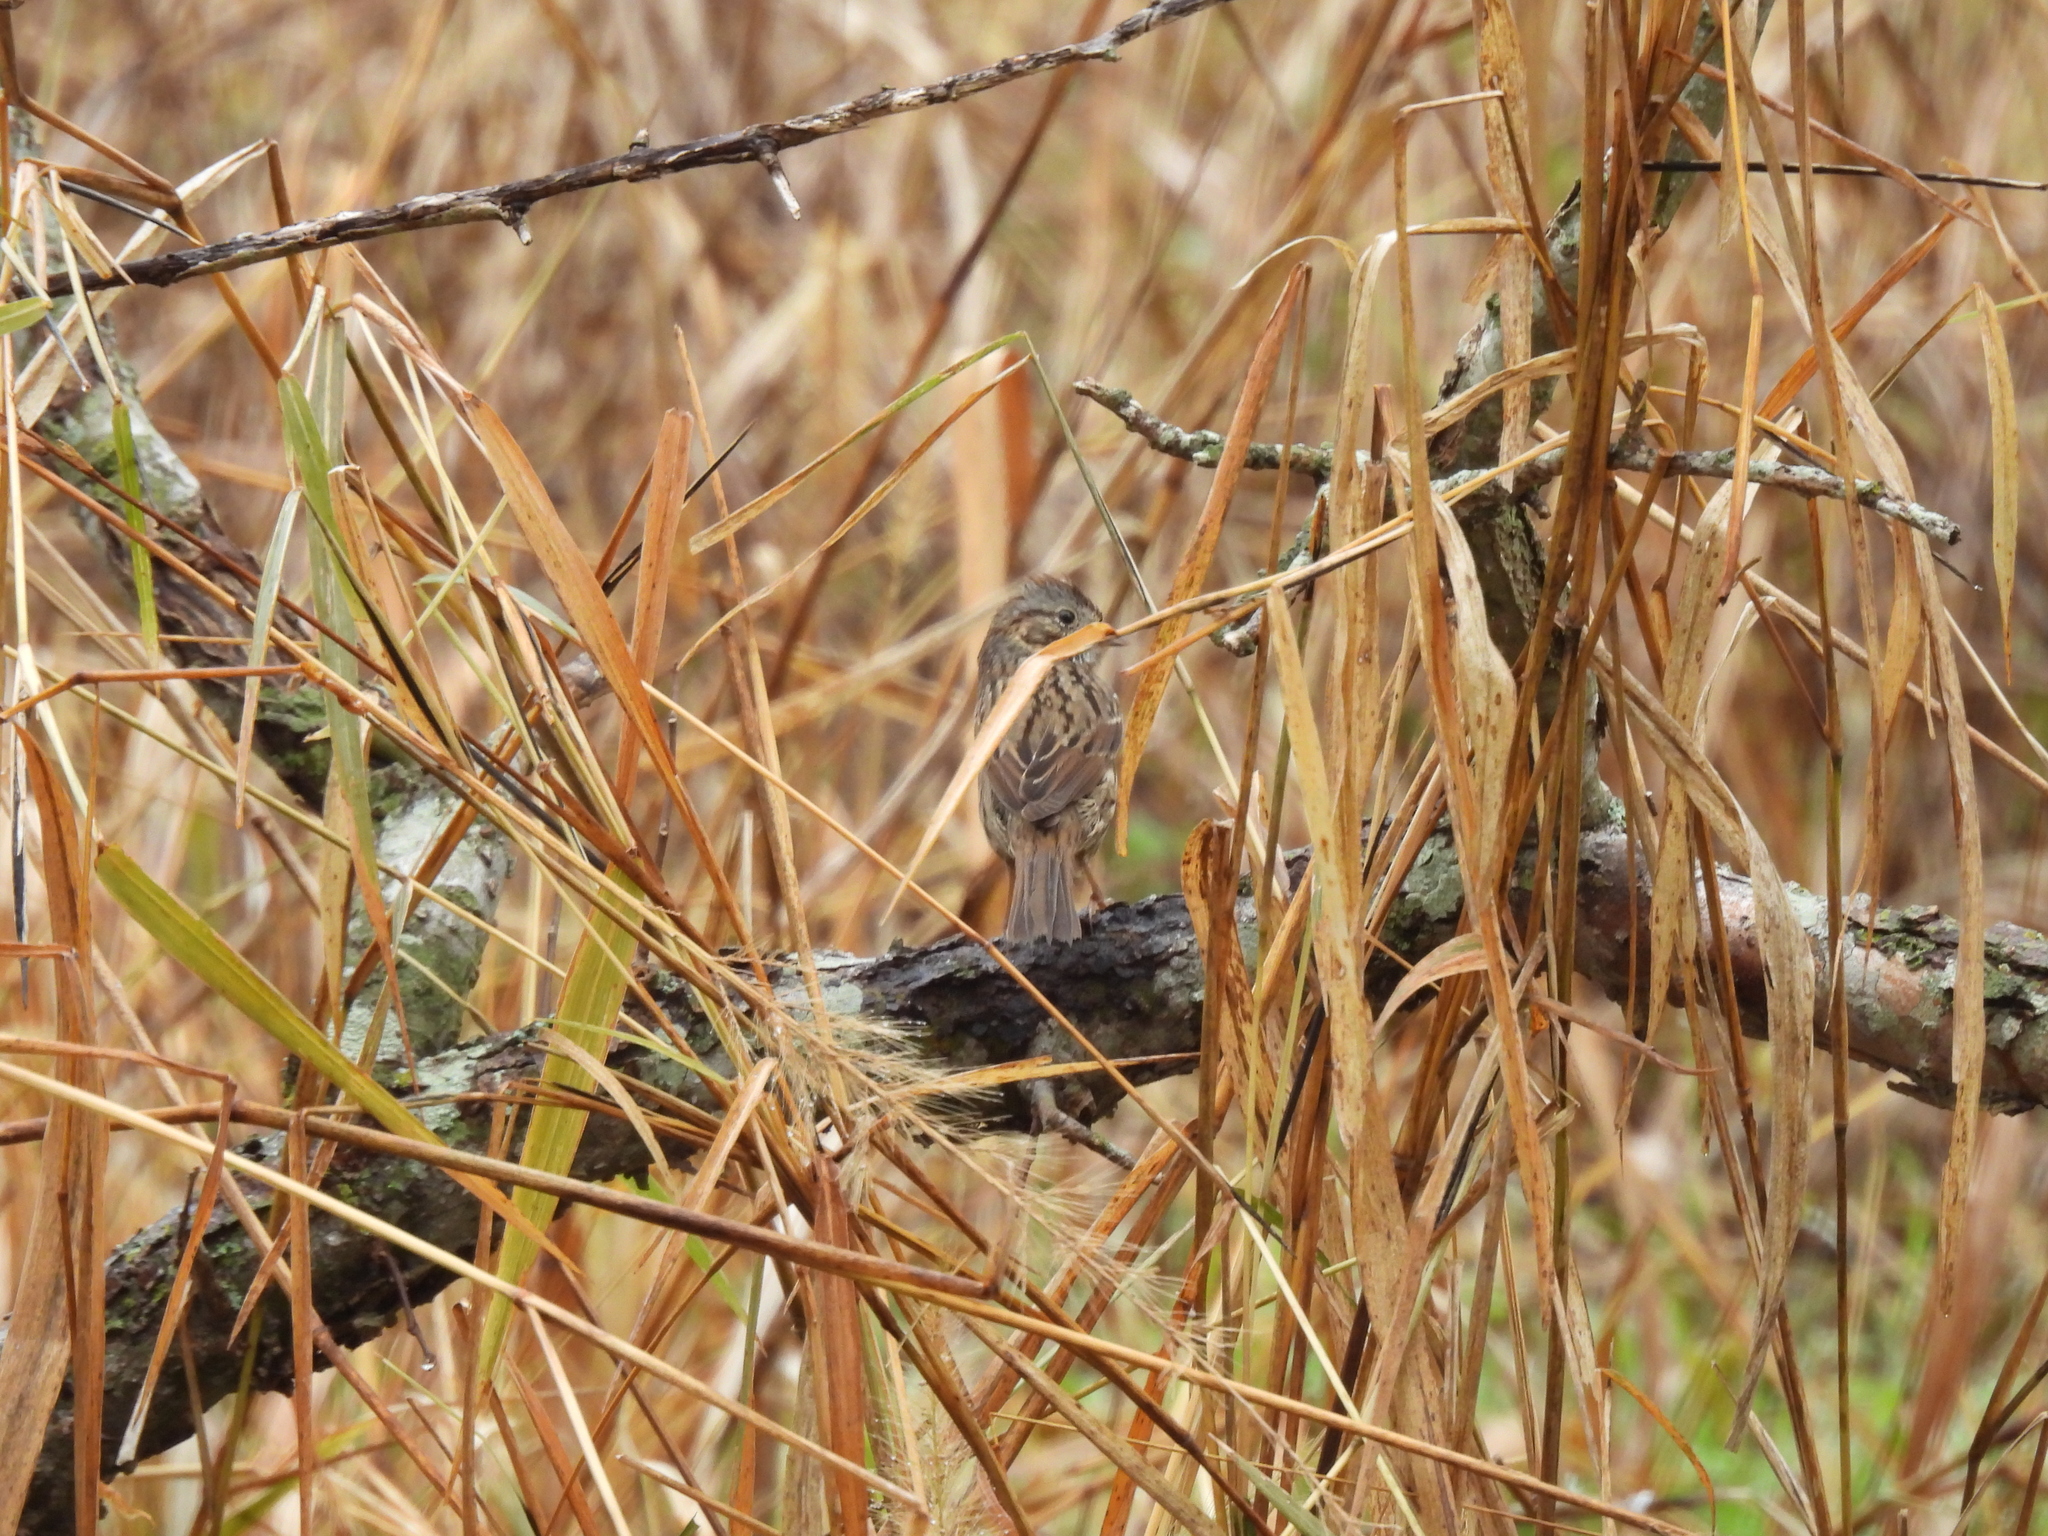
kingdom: Animalia
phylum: Chordata
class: Aves
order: Passeriformes
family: Passerellidae
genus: Melospiza
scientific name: Melospiza lincolnii
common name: Lincoln's sparrow
